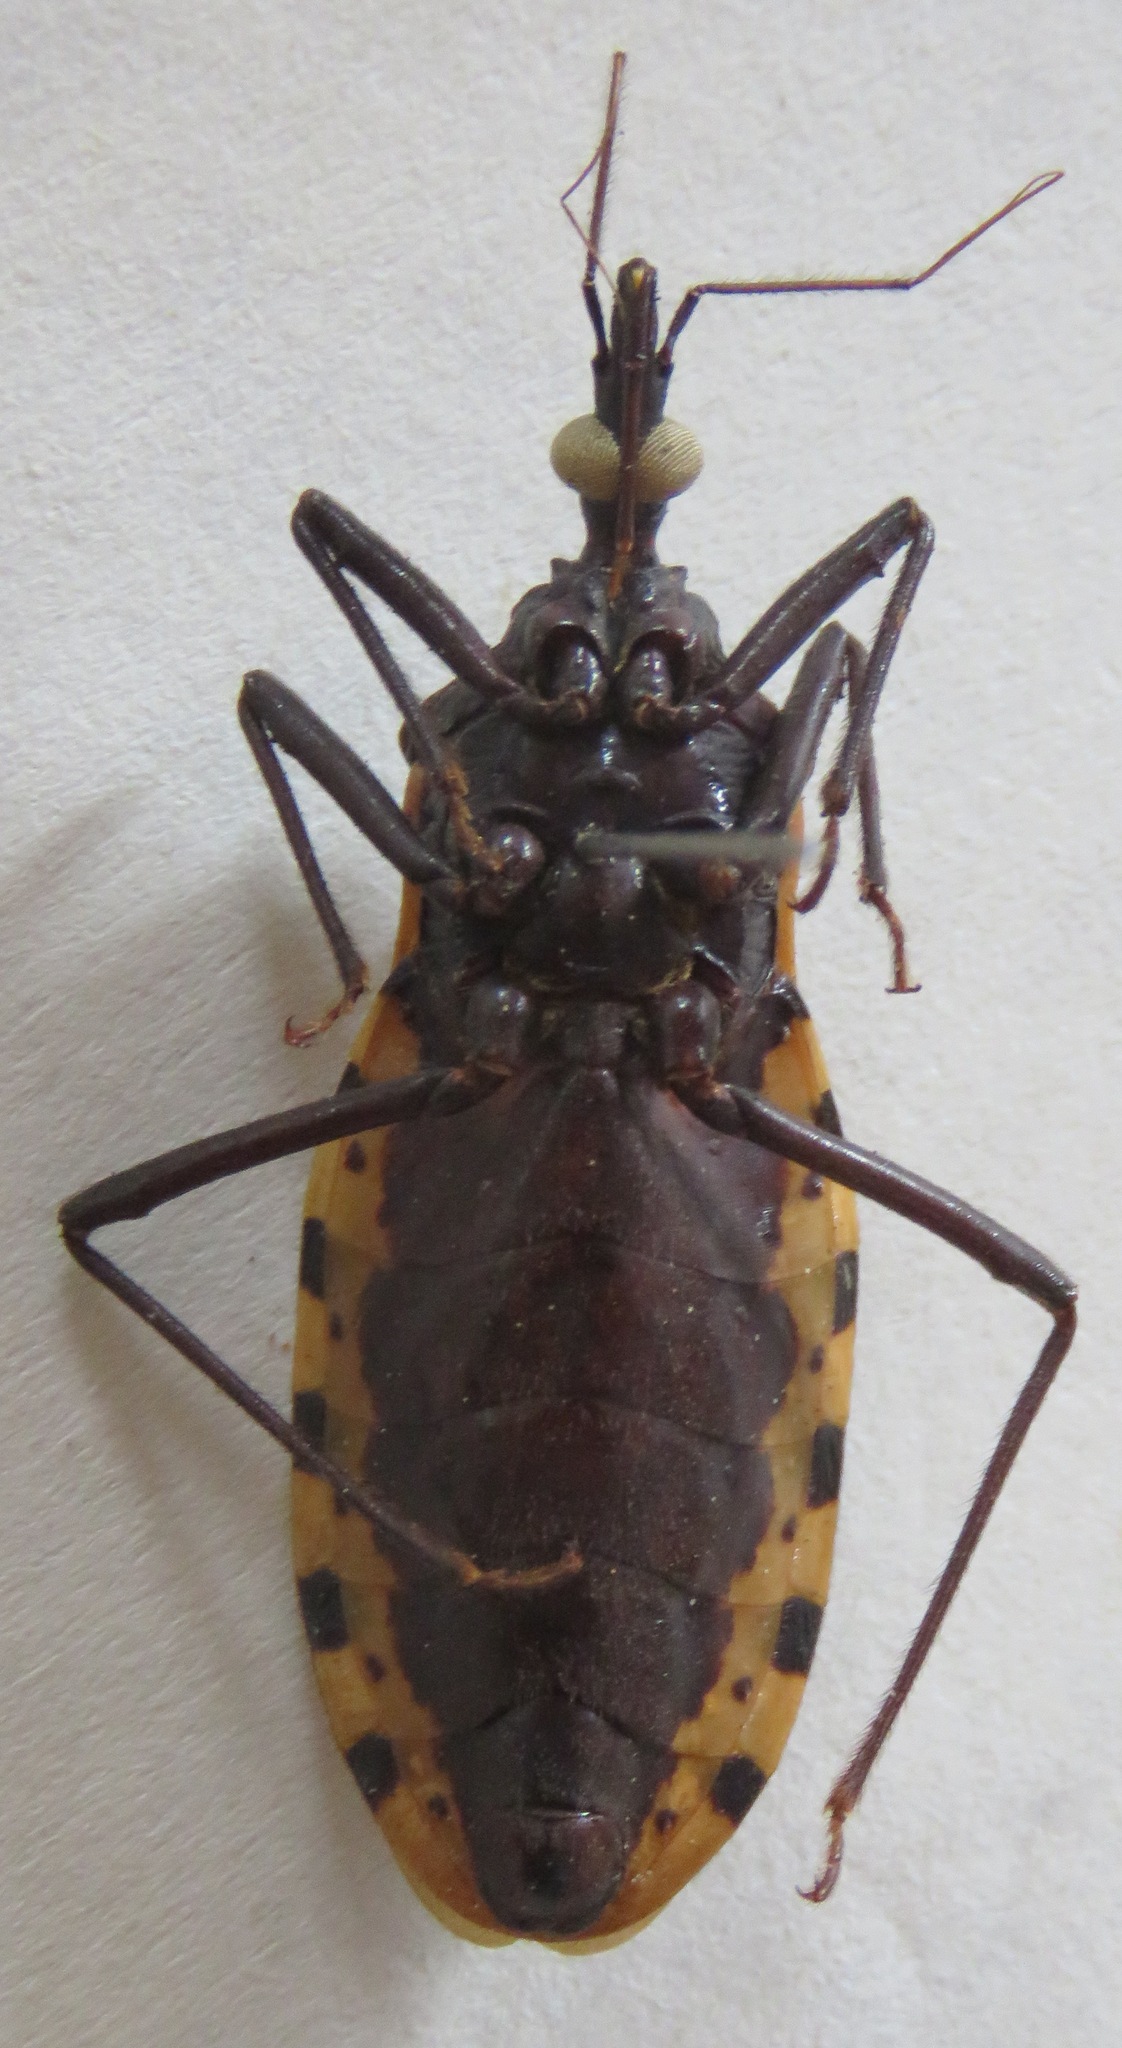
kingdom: Animalia
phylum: Arthropoda
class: Insecta
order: Hemiptera
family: Reduviidae
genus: Meccus
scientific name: Meccus dimidiatus
